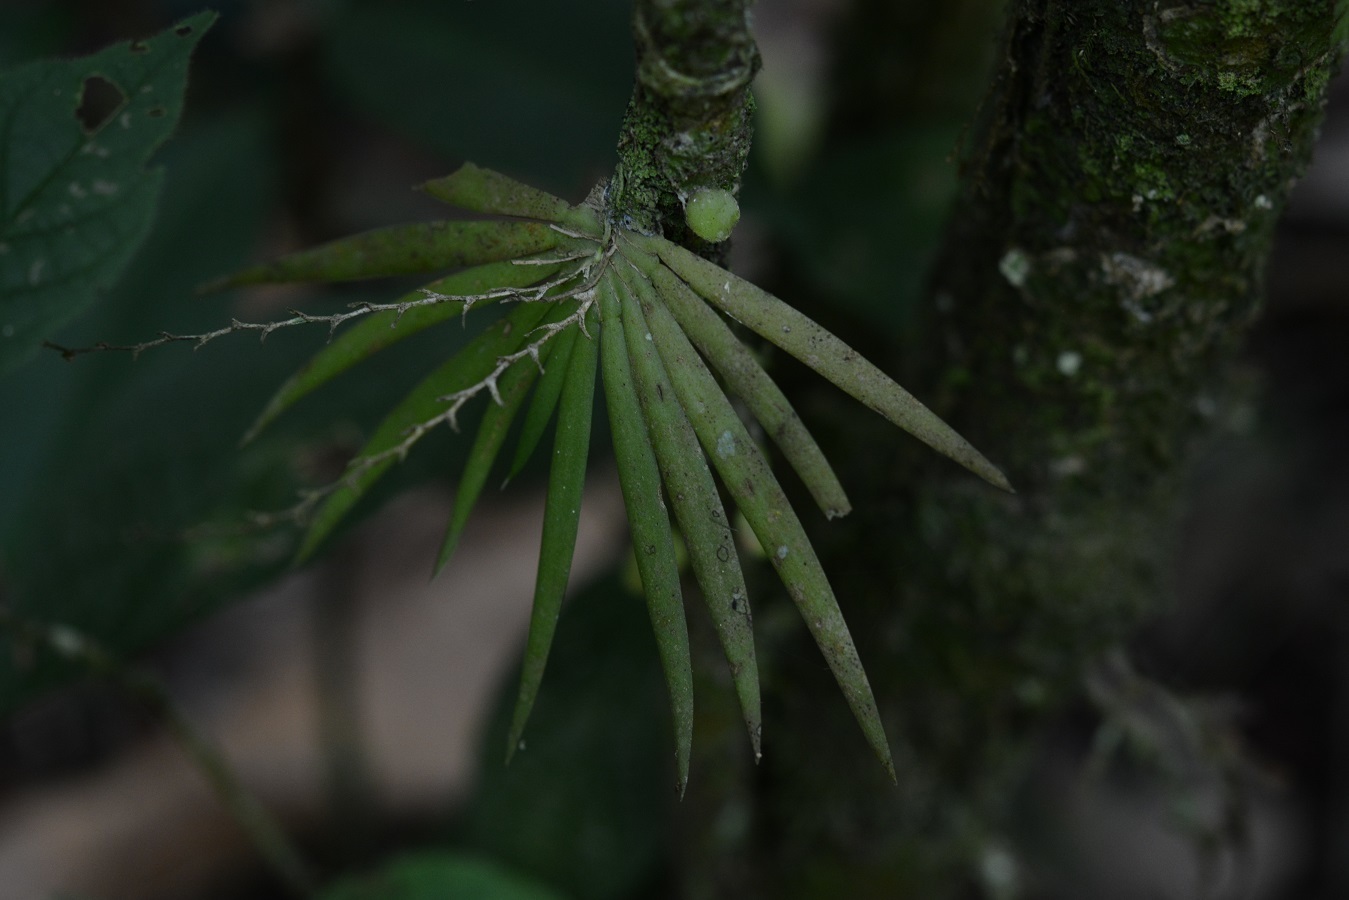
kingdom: Plantae
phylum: Tracheophyta
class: Liliopsida
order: Asparagales
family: Orchidaceae
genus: Ornithocephalus
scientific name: Ornithocephalus iridifolius
